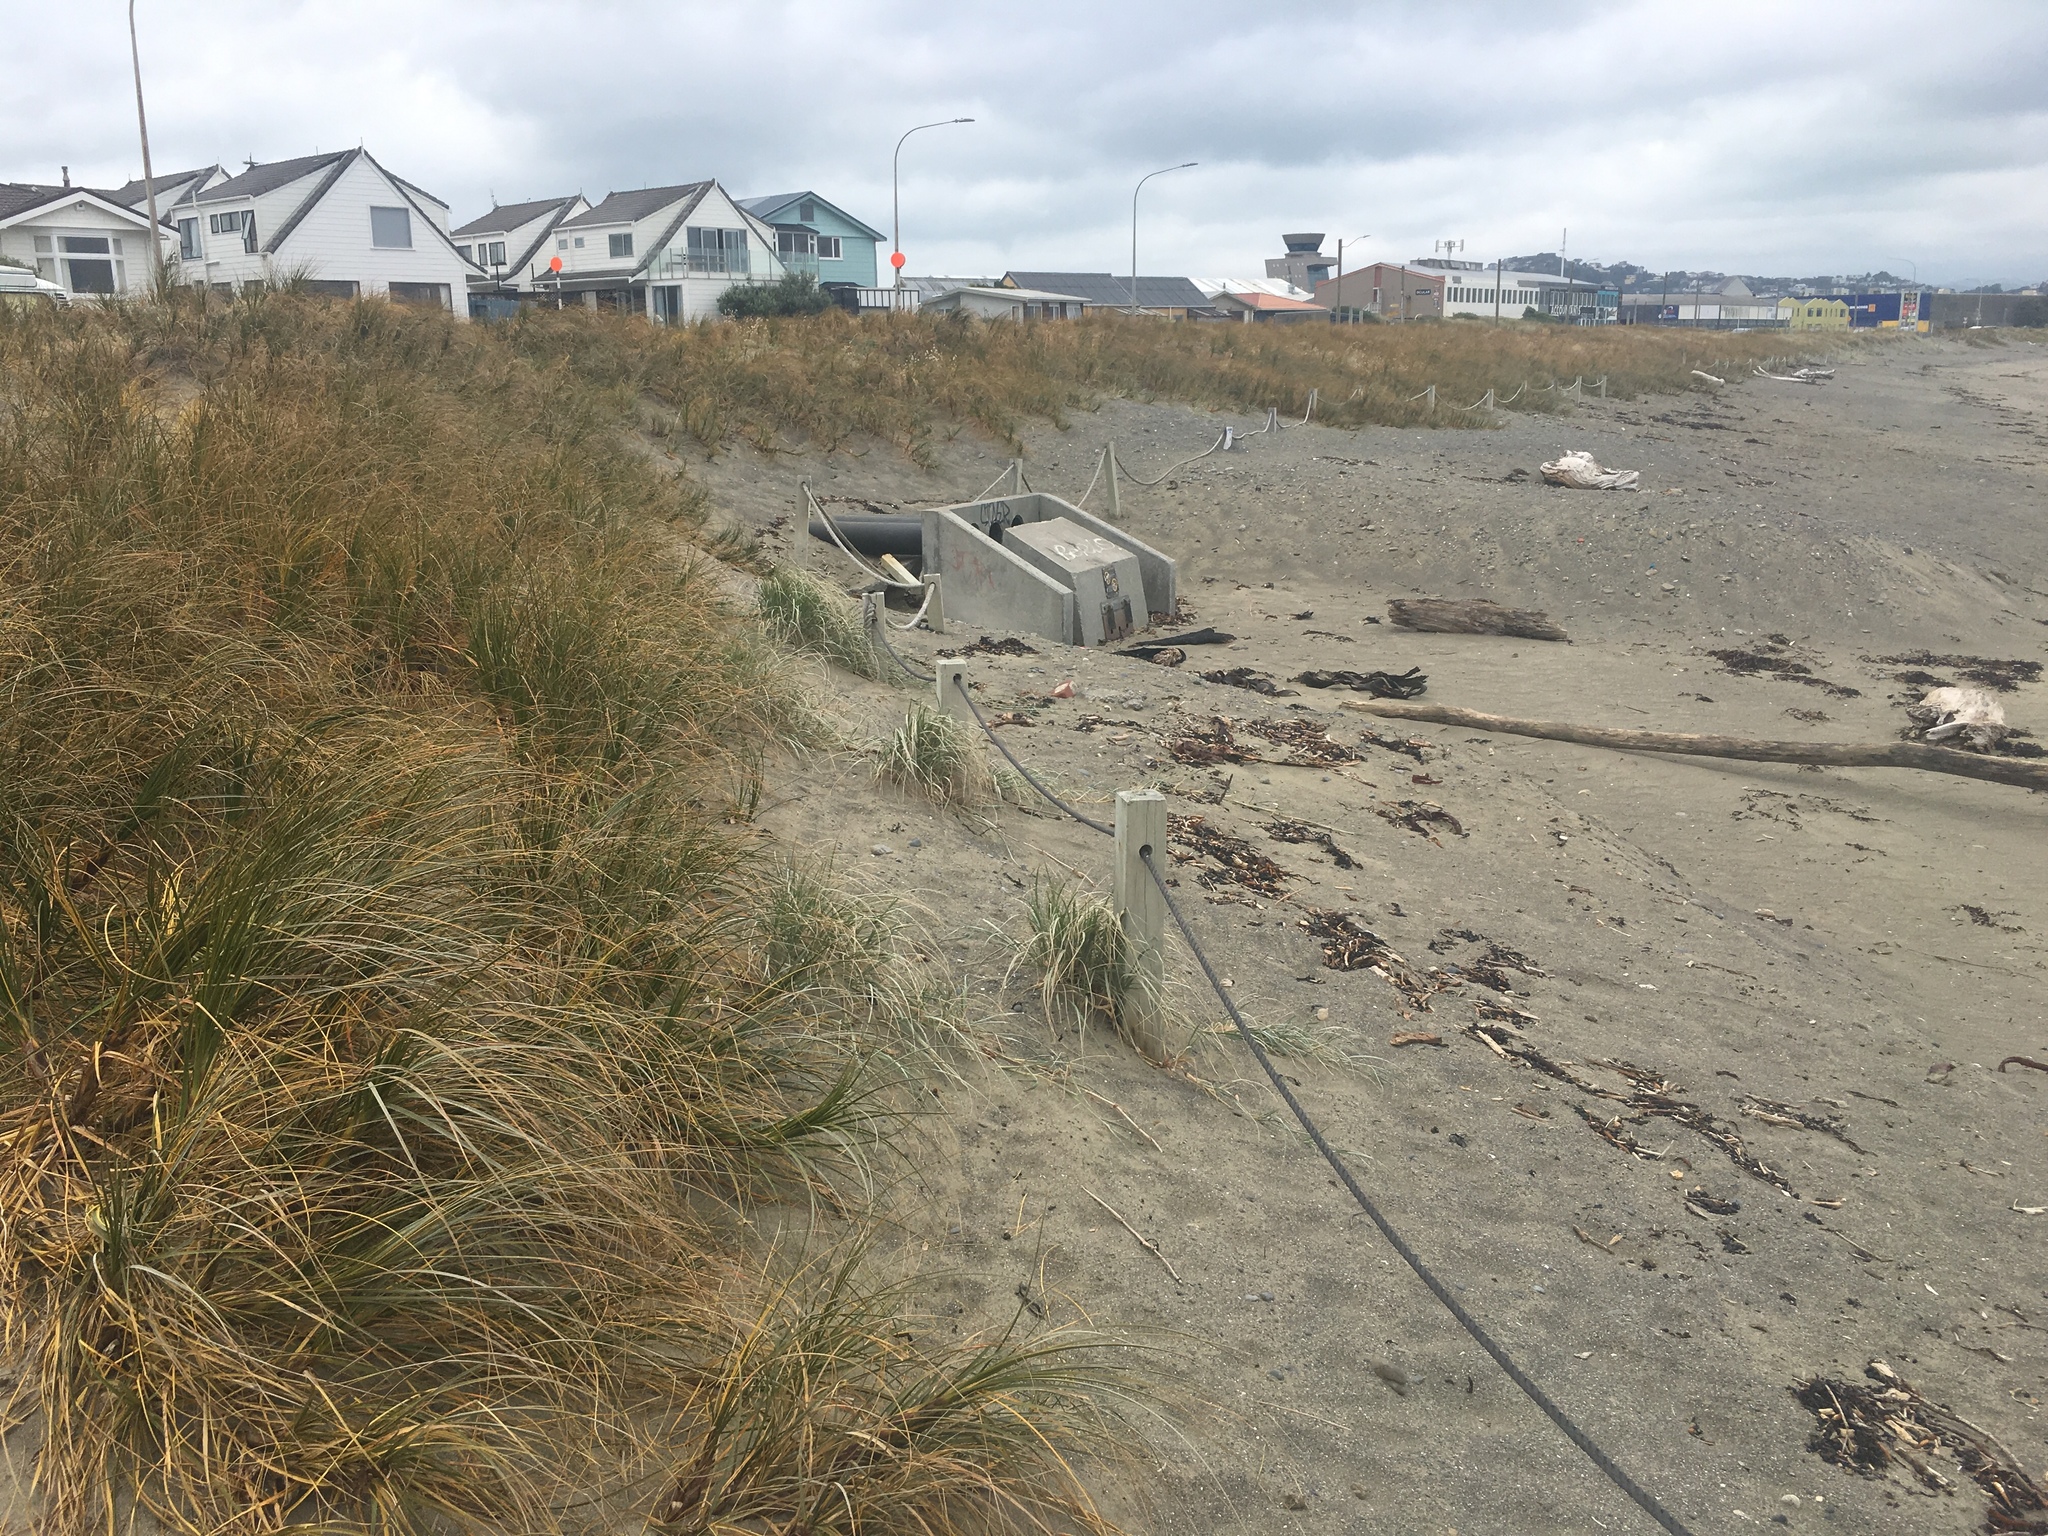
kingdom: Plantae
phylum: Tracheophyta
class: Liliopsida
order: Poales
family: Cyperaceae
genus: Ficinia
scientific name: Ficinia spiralis
